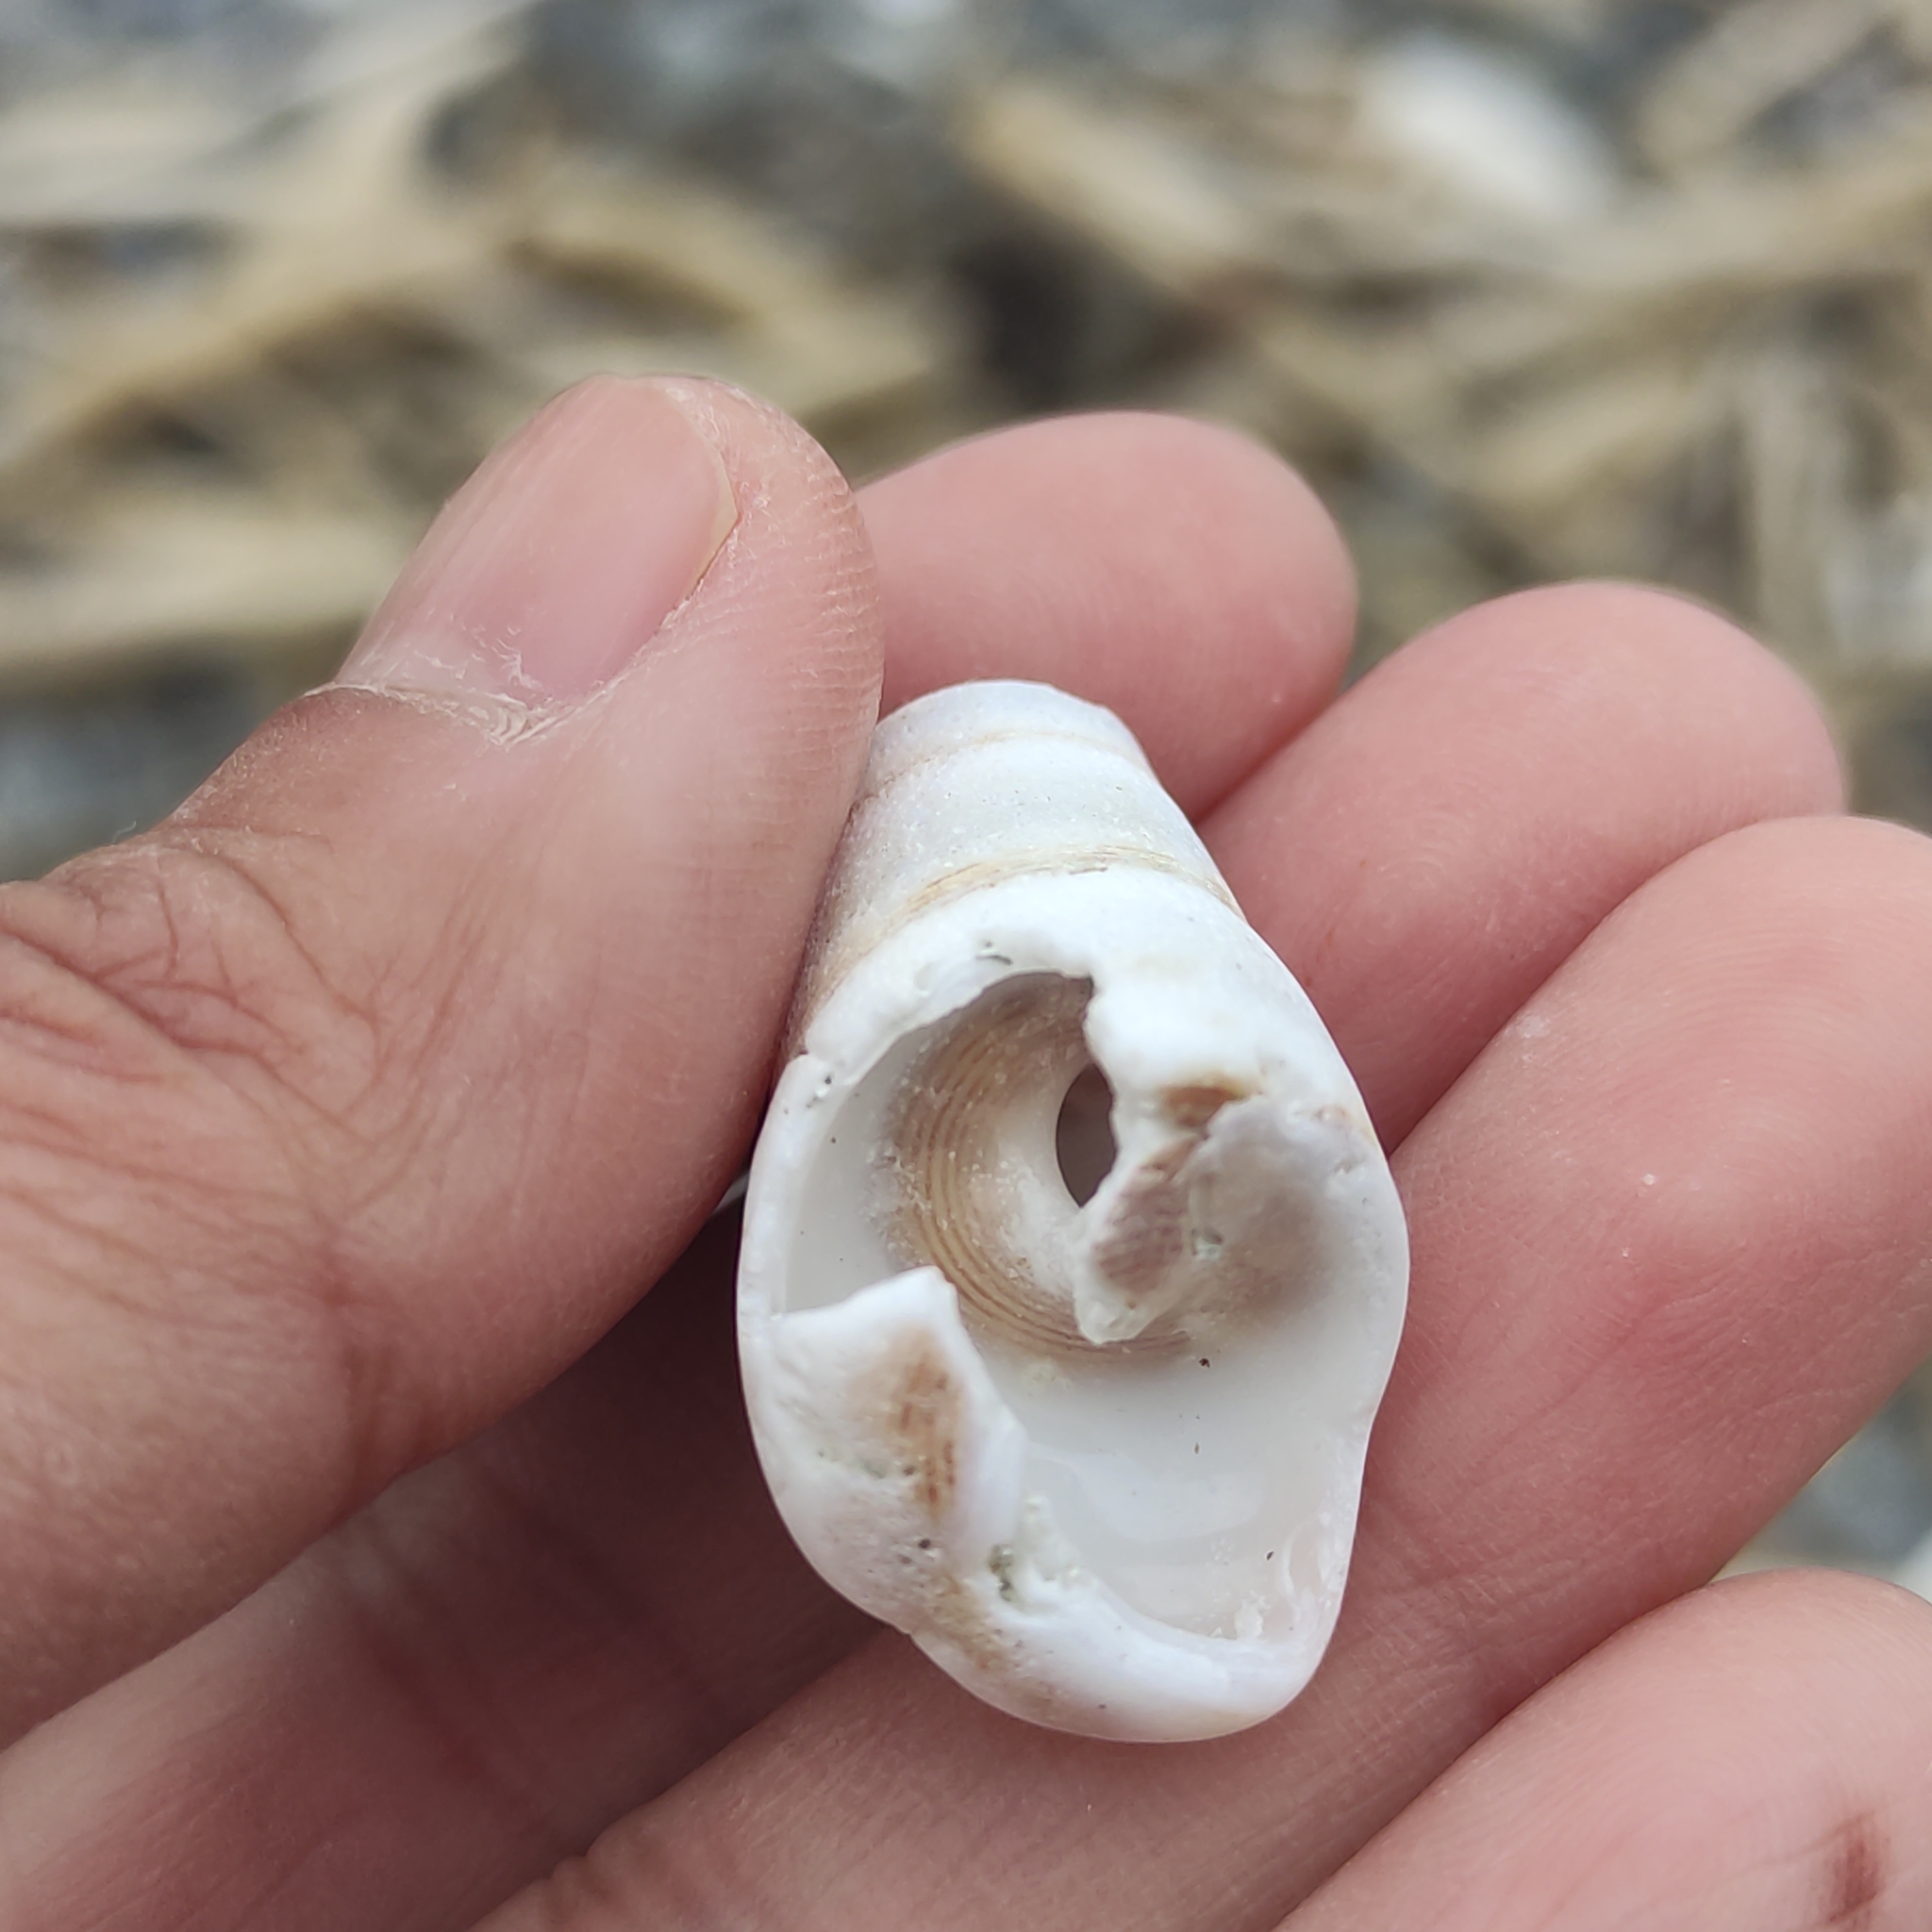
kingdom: Animalia
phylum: Mollusca
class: Gastropoda
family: Turritellidae
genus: Maoricolpus
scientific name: Maoricolpus roseus
